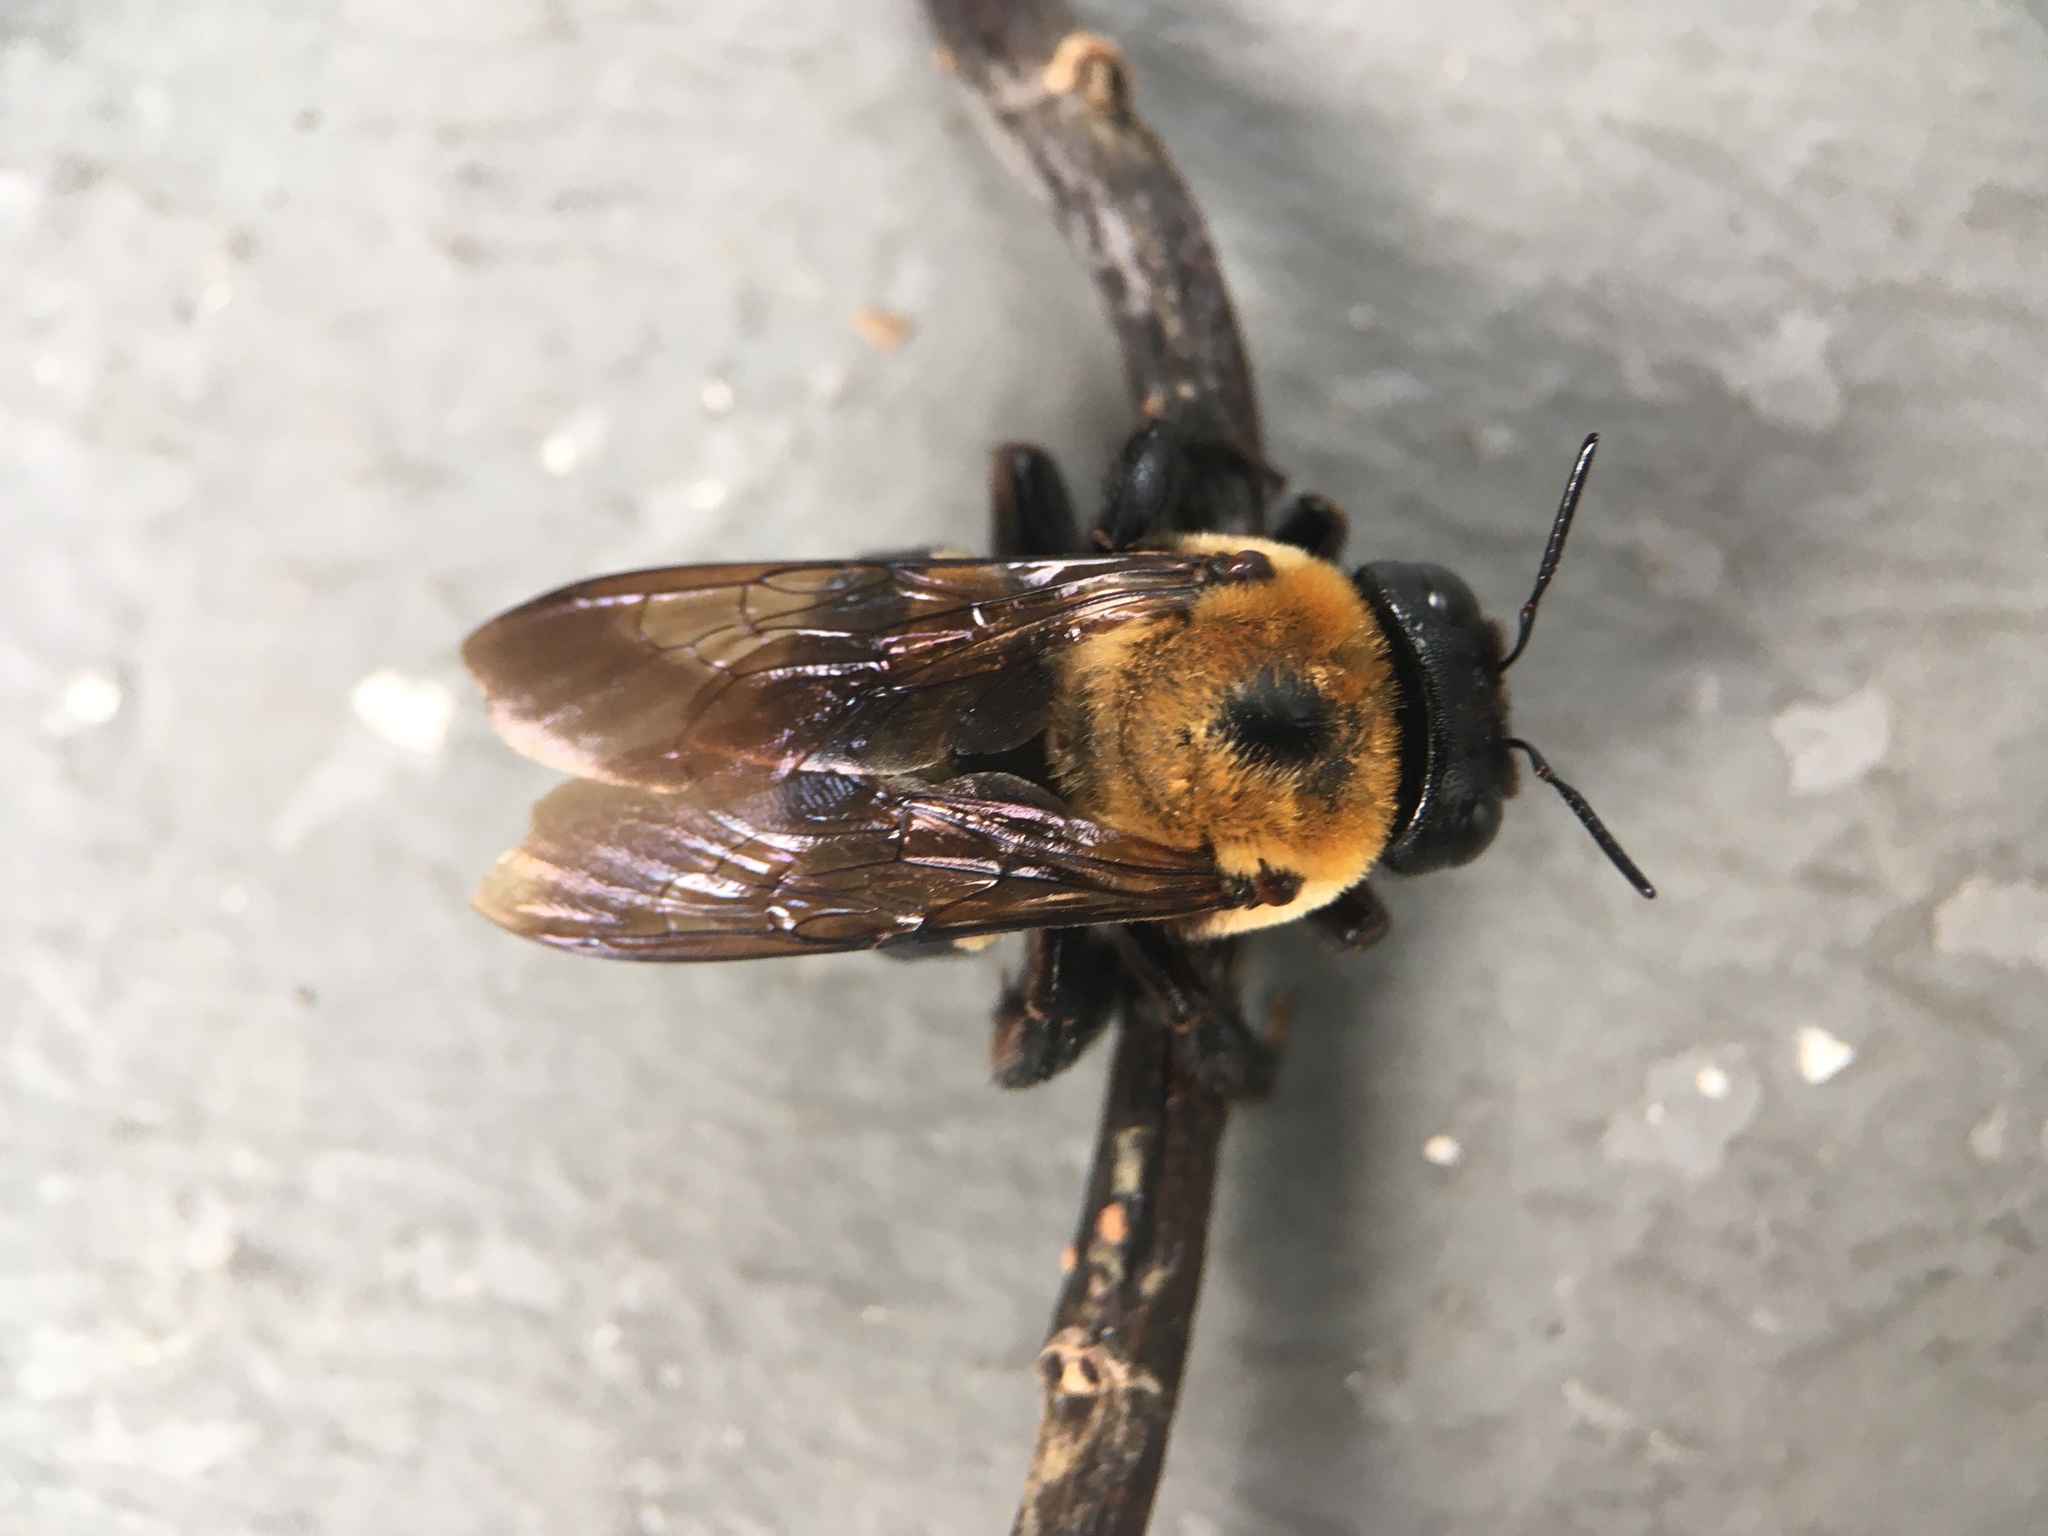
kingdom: Animalia
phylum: Arthropoda
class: Insecta
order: Hymenoptera
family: Apidae
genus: Xylocopa
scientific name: Xylocopa virginica
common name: Carpenter bee
